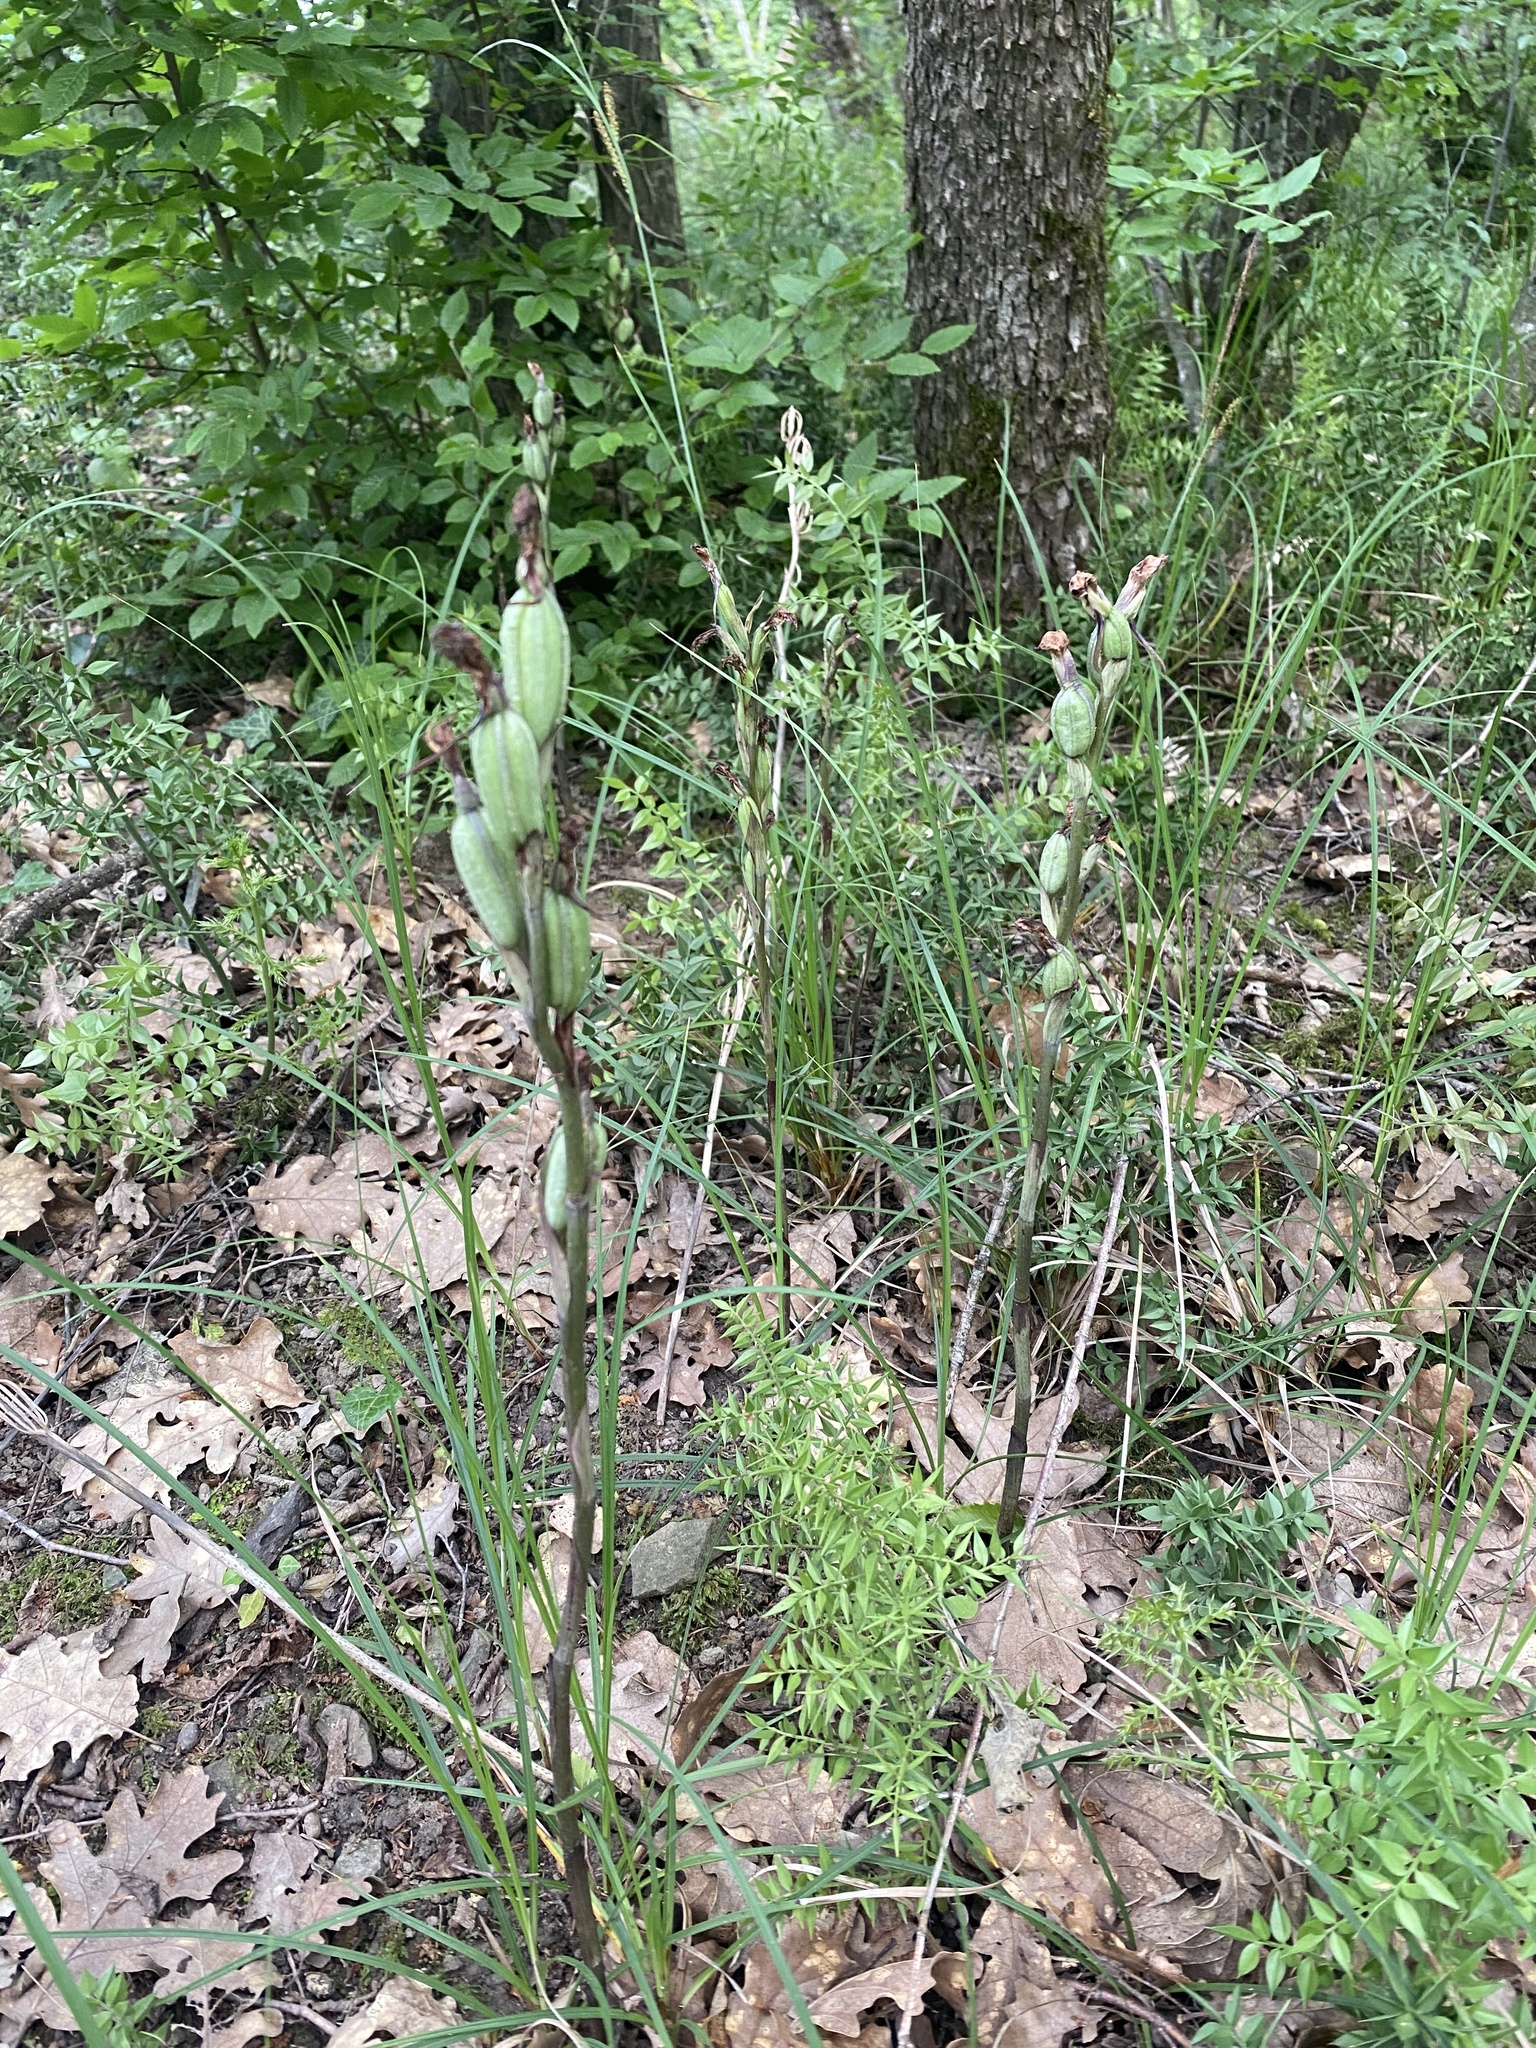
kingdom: Plantae
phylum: Tracheophyta
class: Liliopsida
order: Asparagales
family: Orchidaceae
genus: Limodorum
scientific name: Limodorum abortivum
